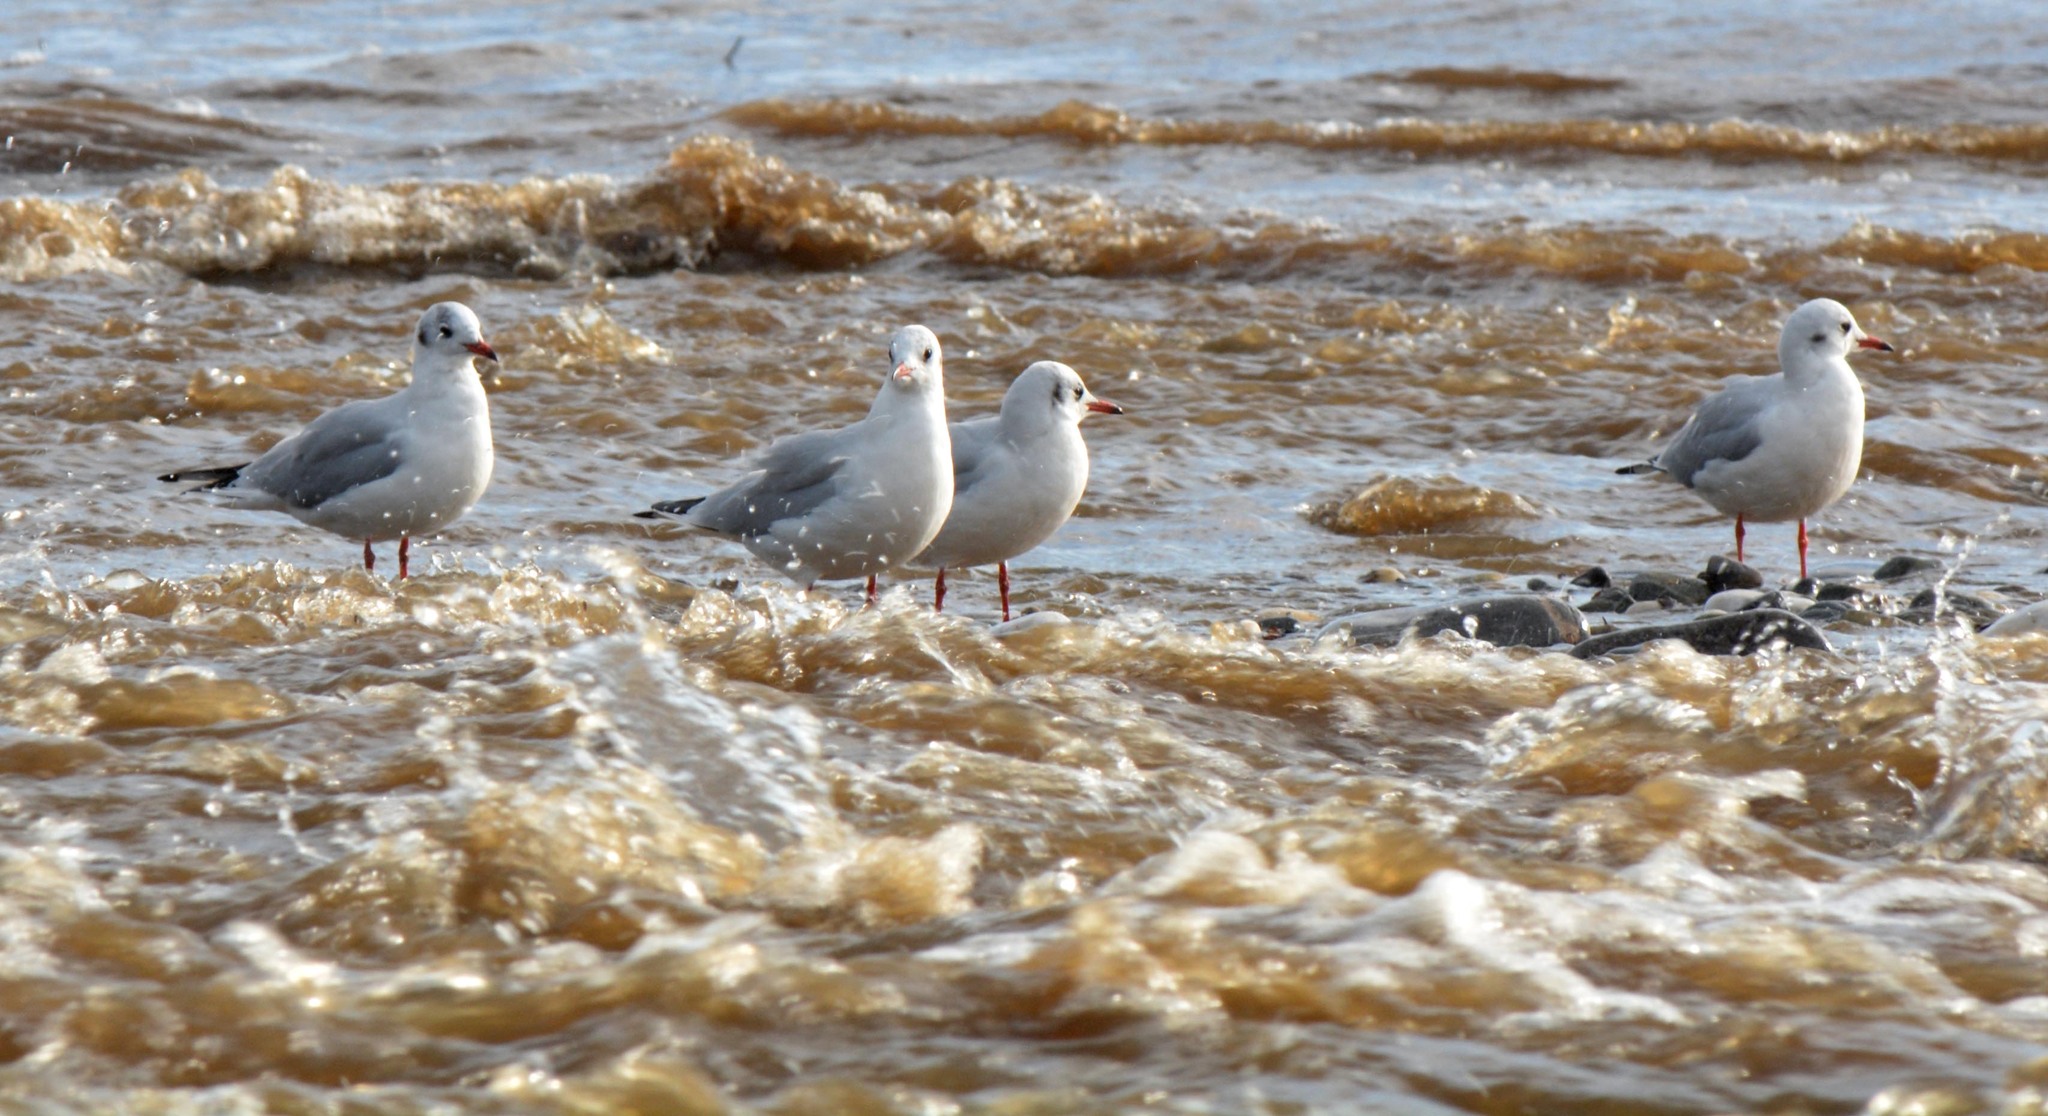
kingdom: Animalia
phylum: Chordata
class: Aves
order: Charadriiformes
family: Laridae
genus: Chroicocephalus
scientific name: Chroicocephalus ridibundus
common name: Black-headed gull
